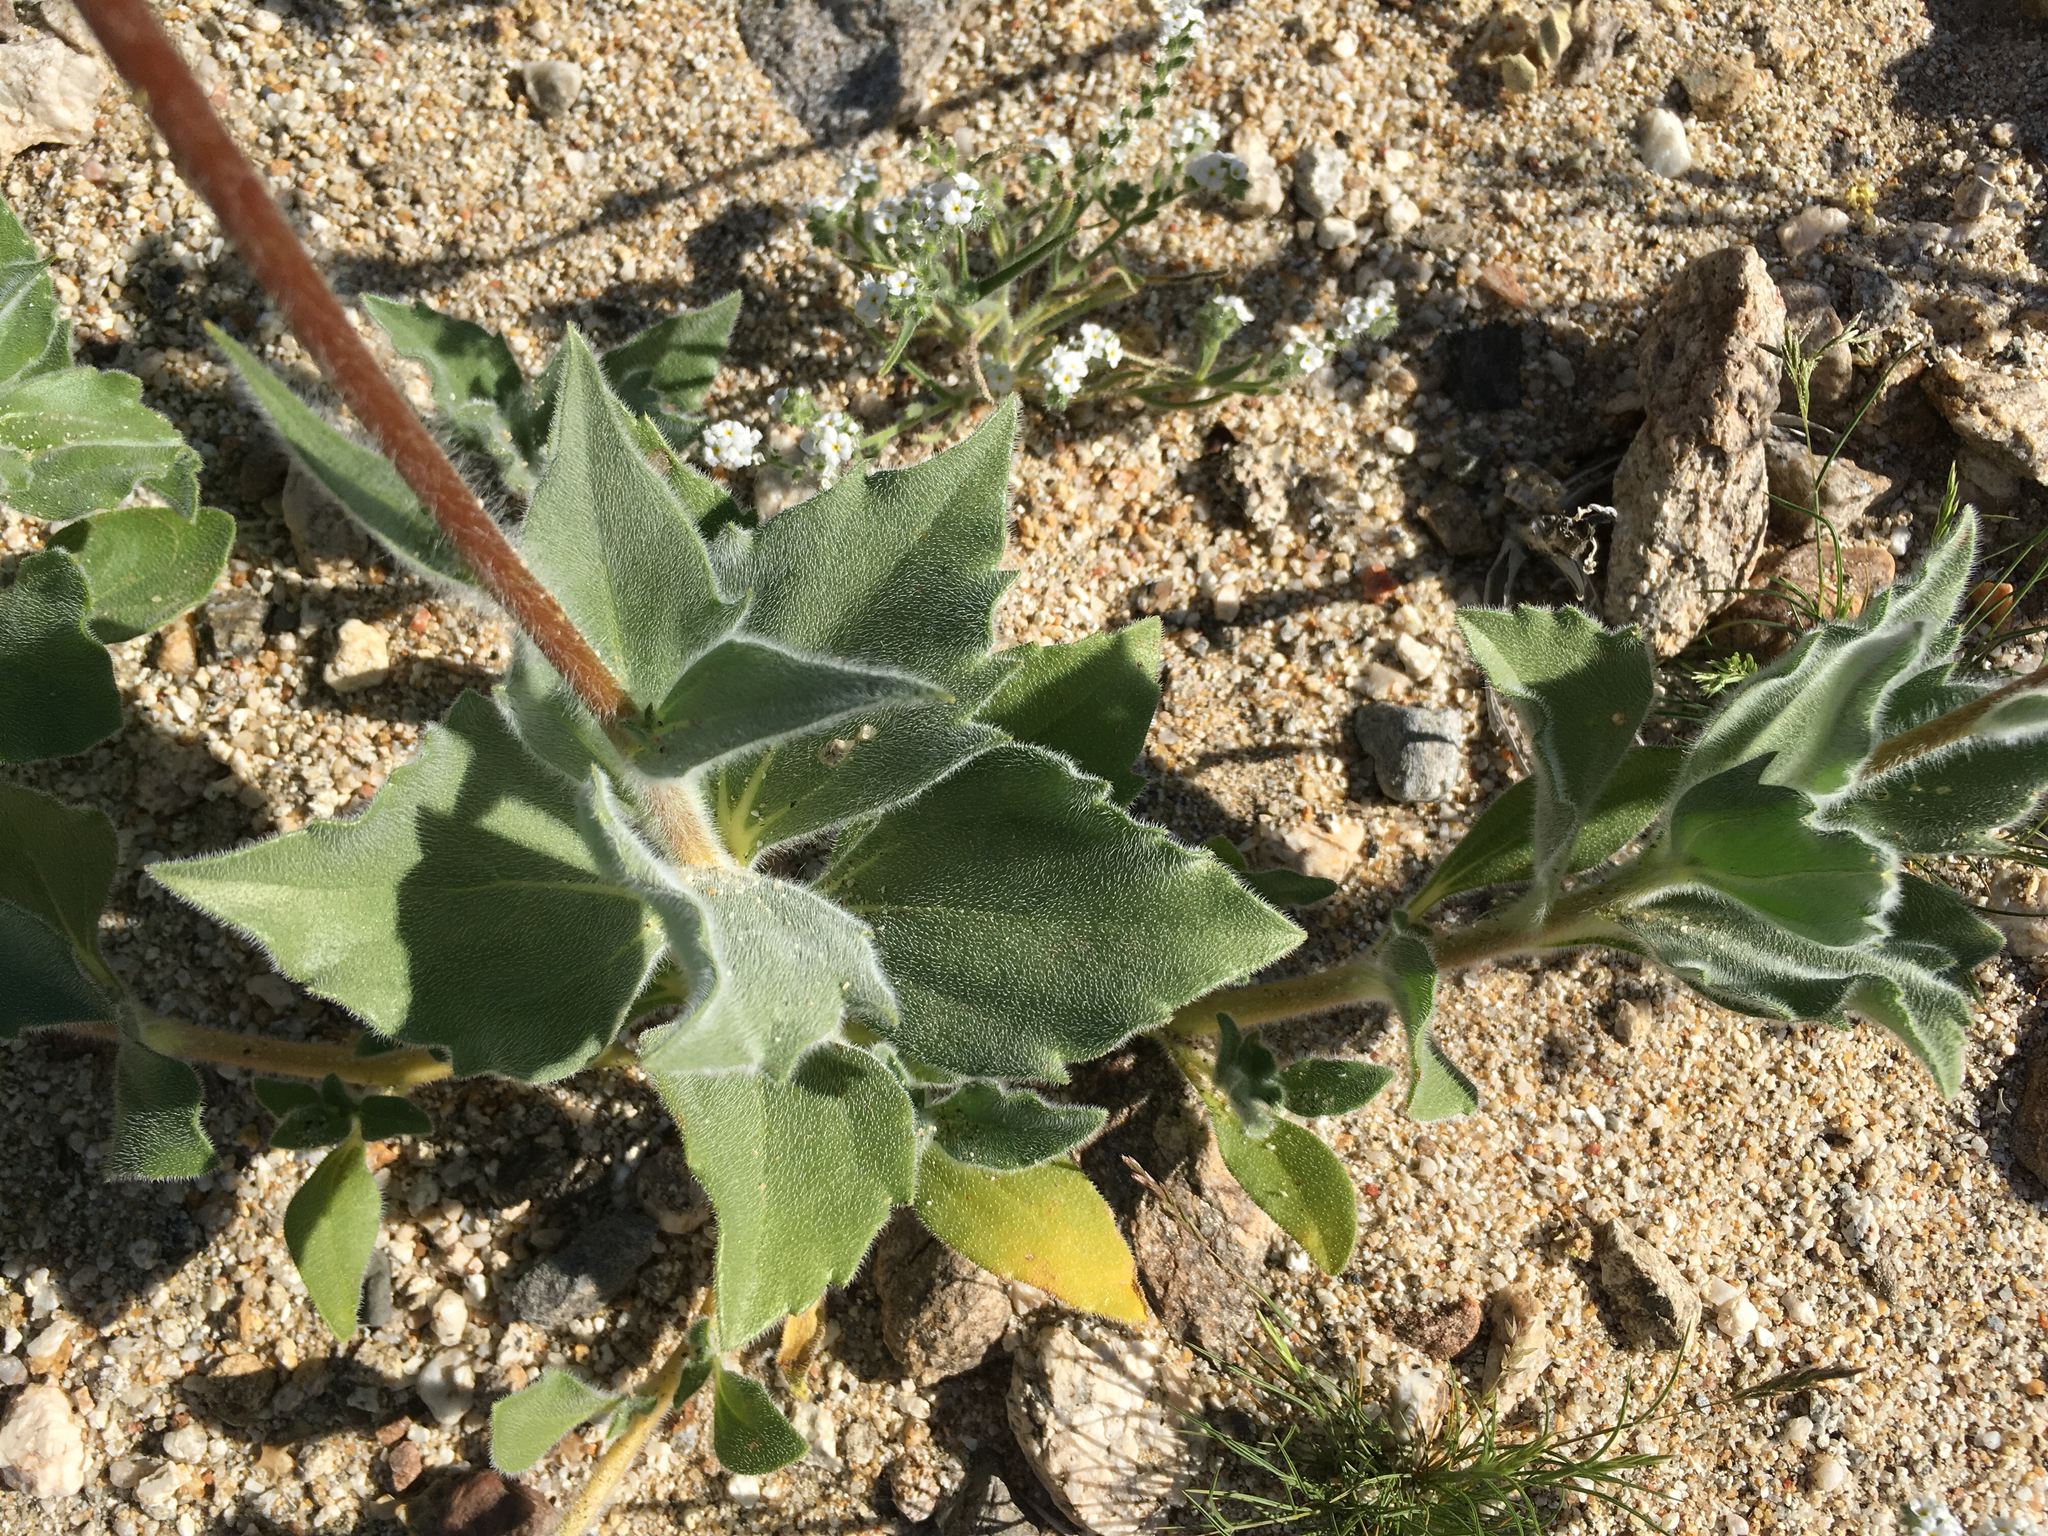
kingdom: Plantae
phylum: Tracheophyta
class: Magnoliopsida
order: Asterales
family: Asteraceae
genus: Geraea
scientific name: Geraea canescens
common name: Desert-gold
